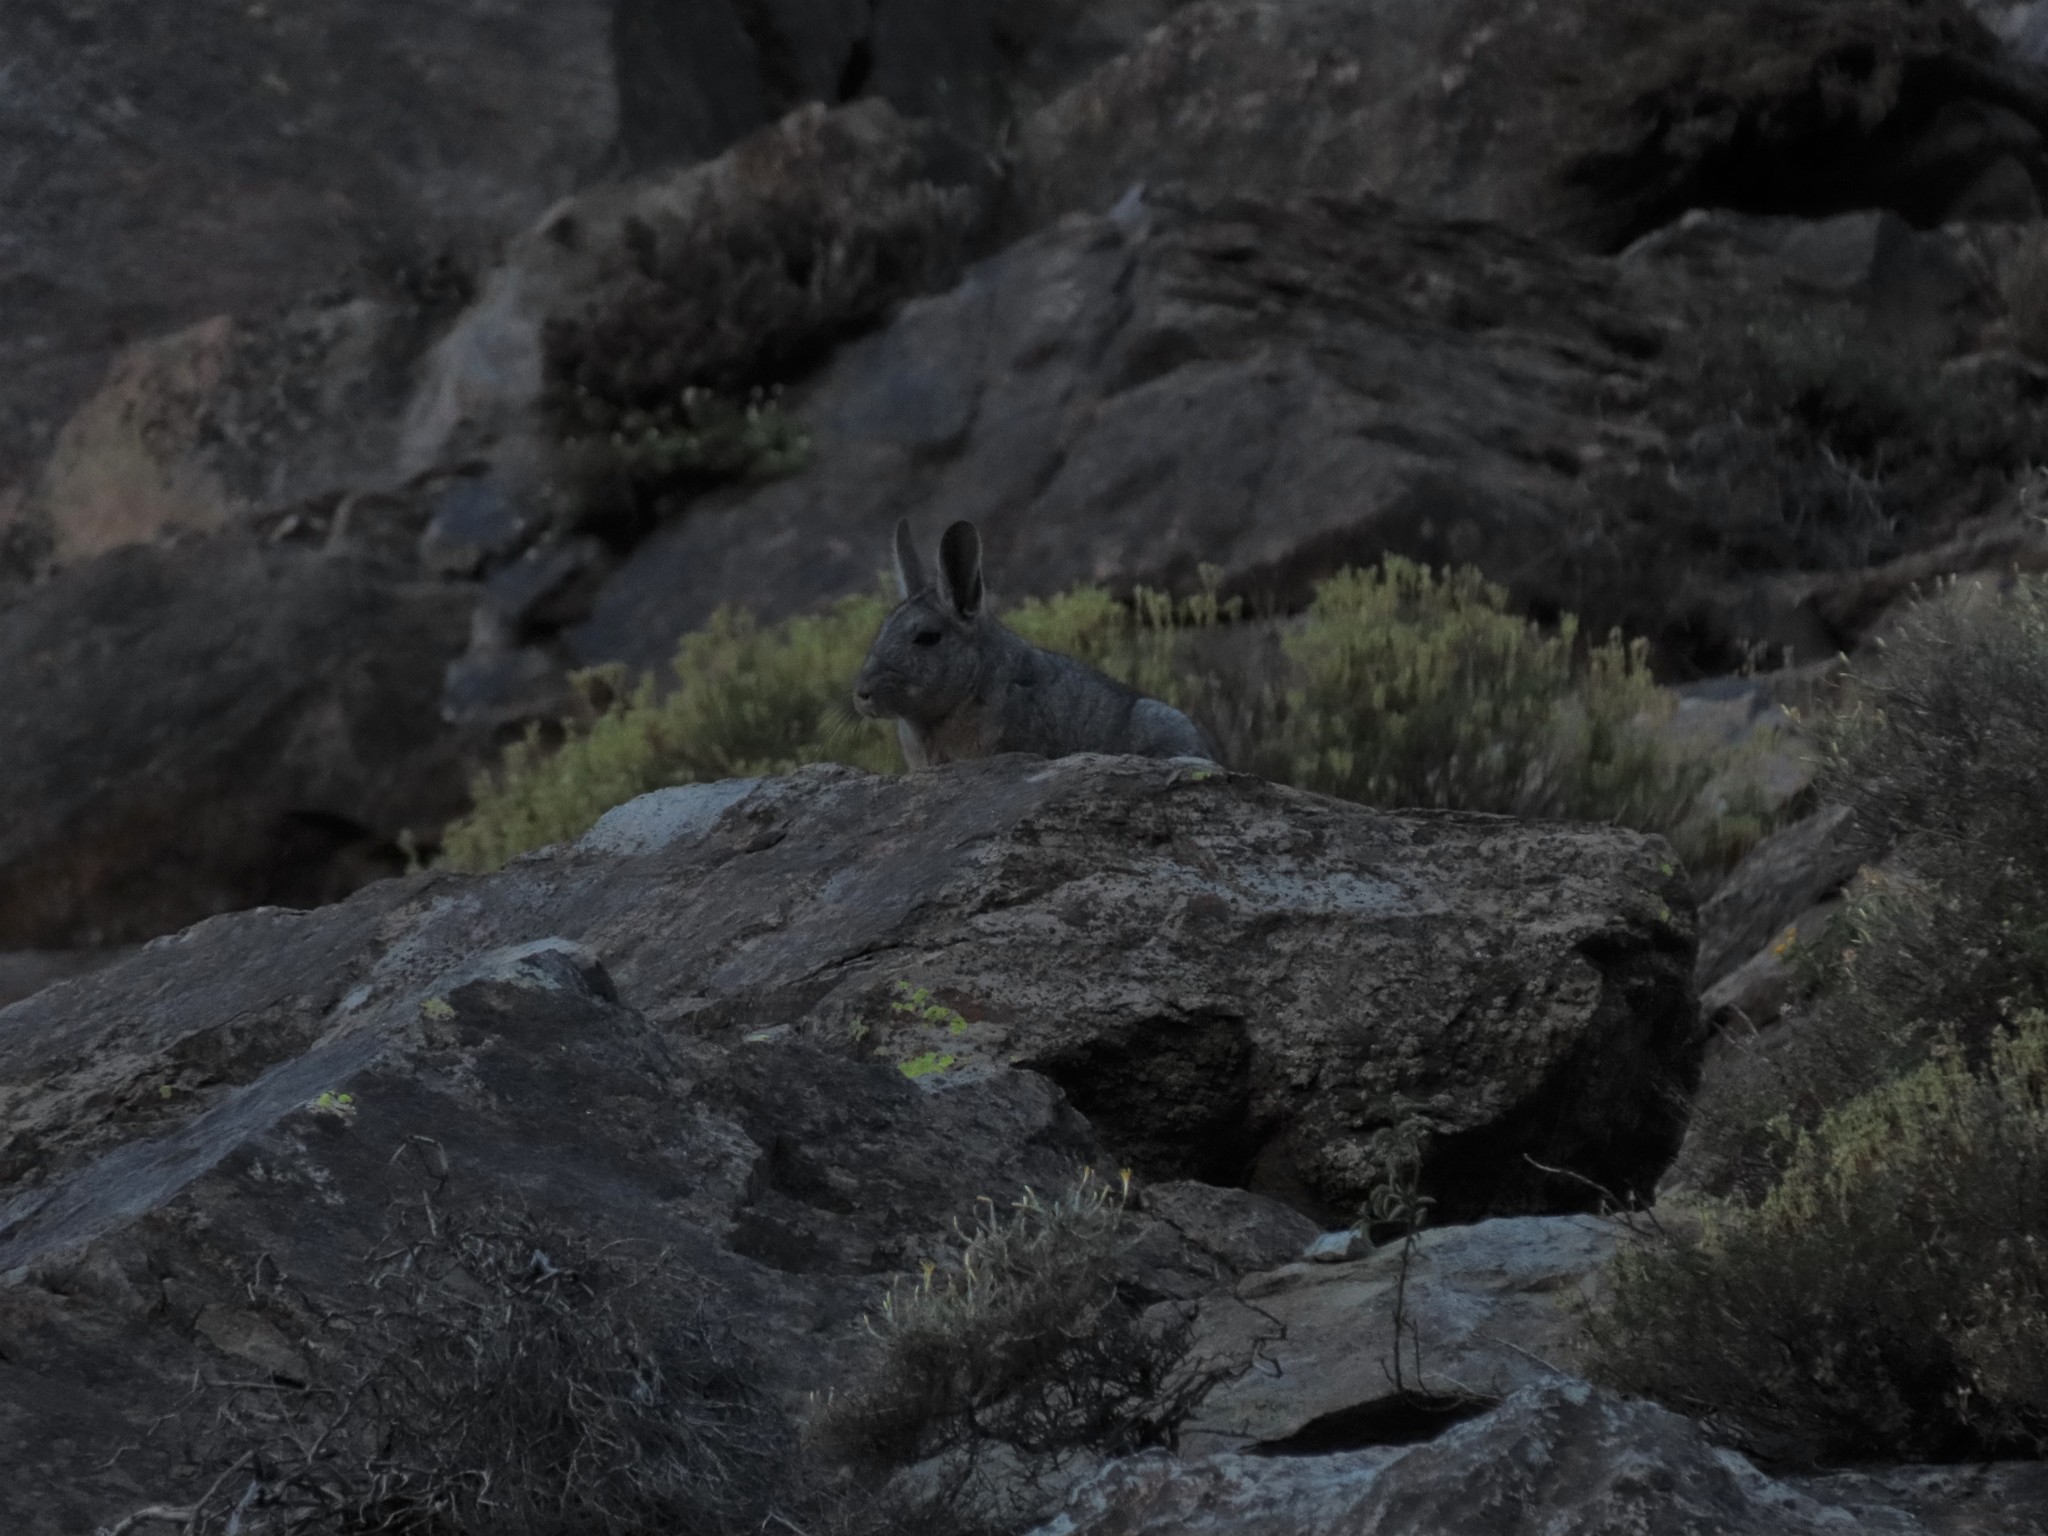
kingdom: Animalia
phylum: Chordata
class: Mammalia
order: Rodentia
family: Chinchillidae
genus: Lagidium
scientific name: Lagidium viscacia
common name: Southern viscacha
